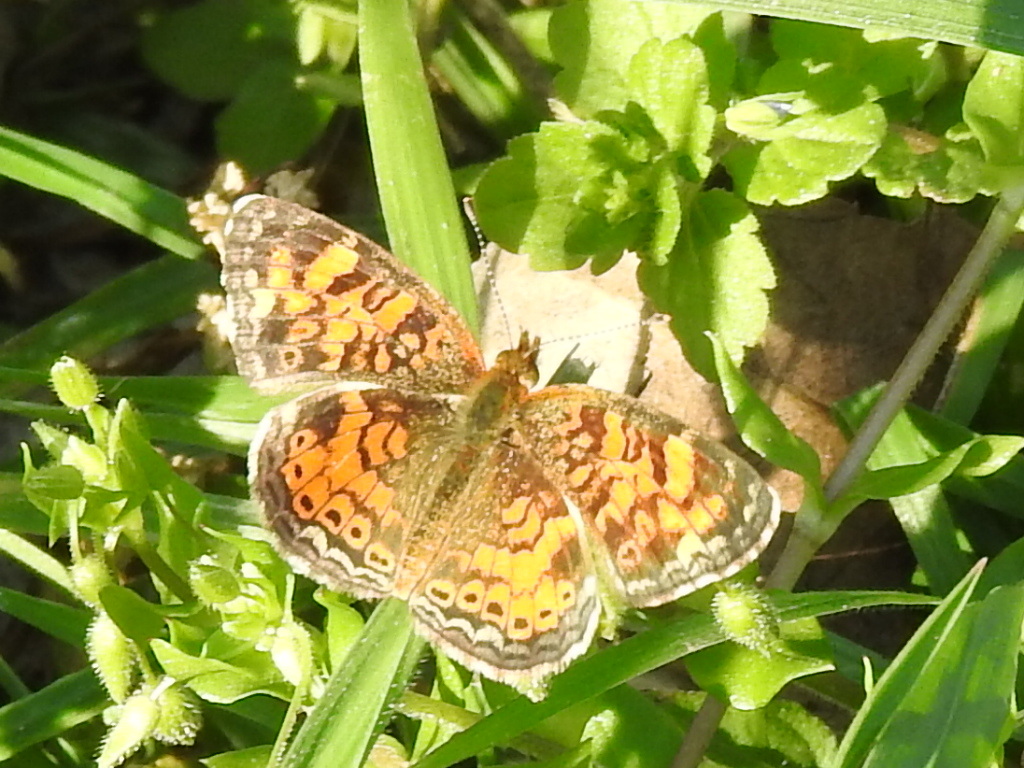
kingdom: Animalia
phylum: Arthropoda
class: Insecta
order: Lepidoptera
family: Nymphalidae
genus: Phyciodes
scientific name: Phyciodes tharos
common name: Pearl crescent
